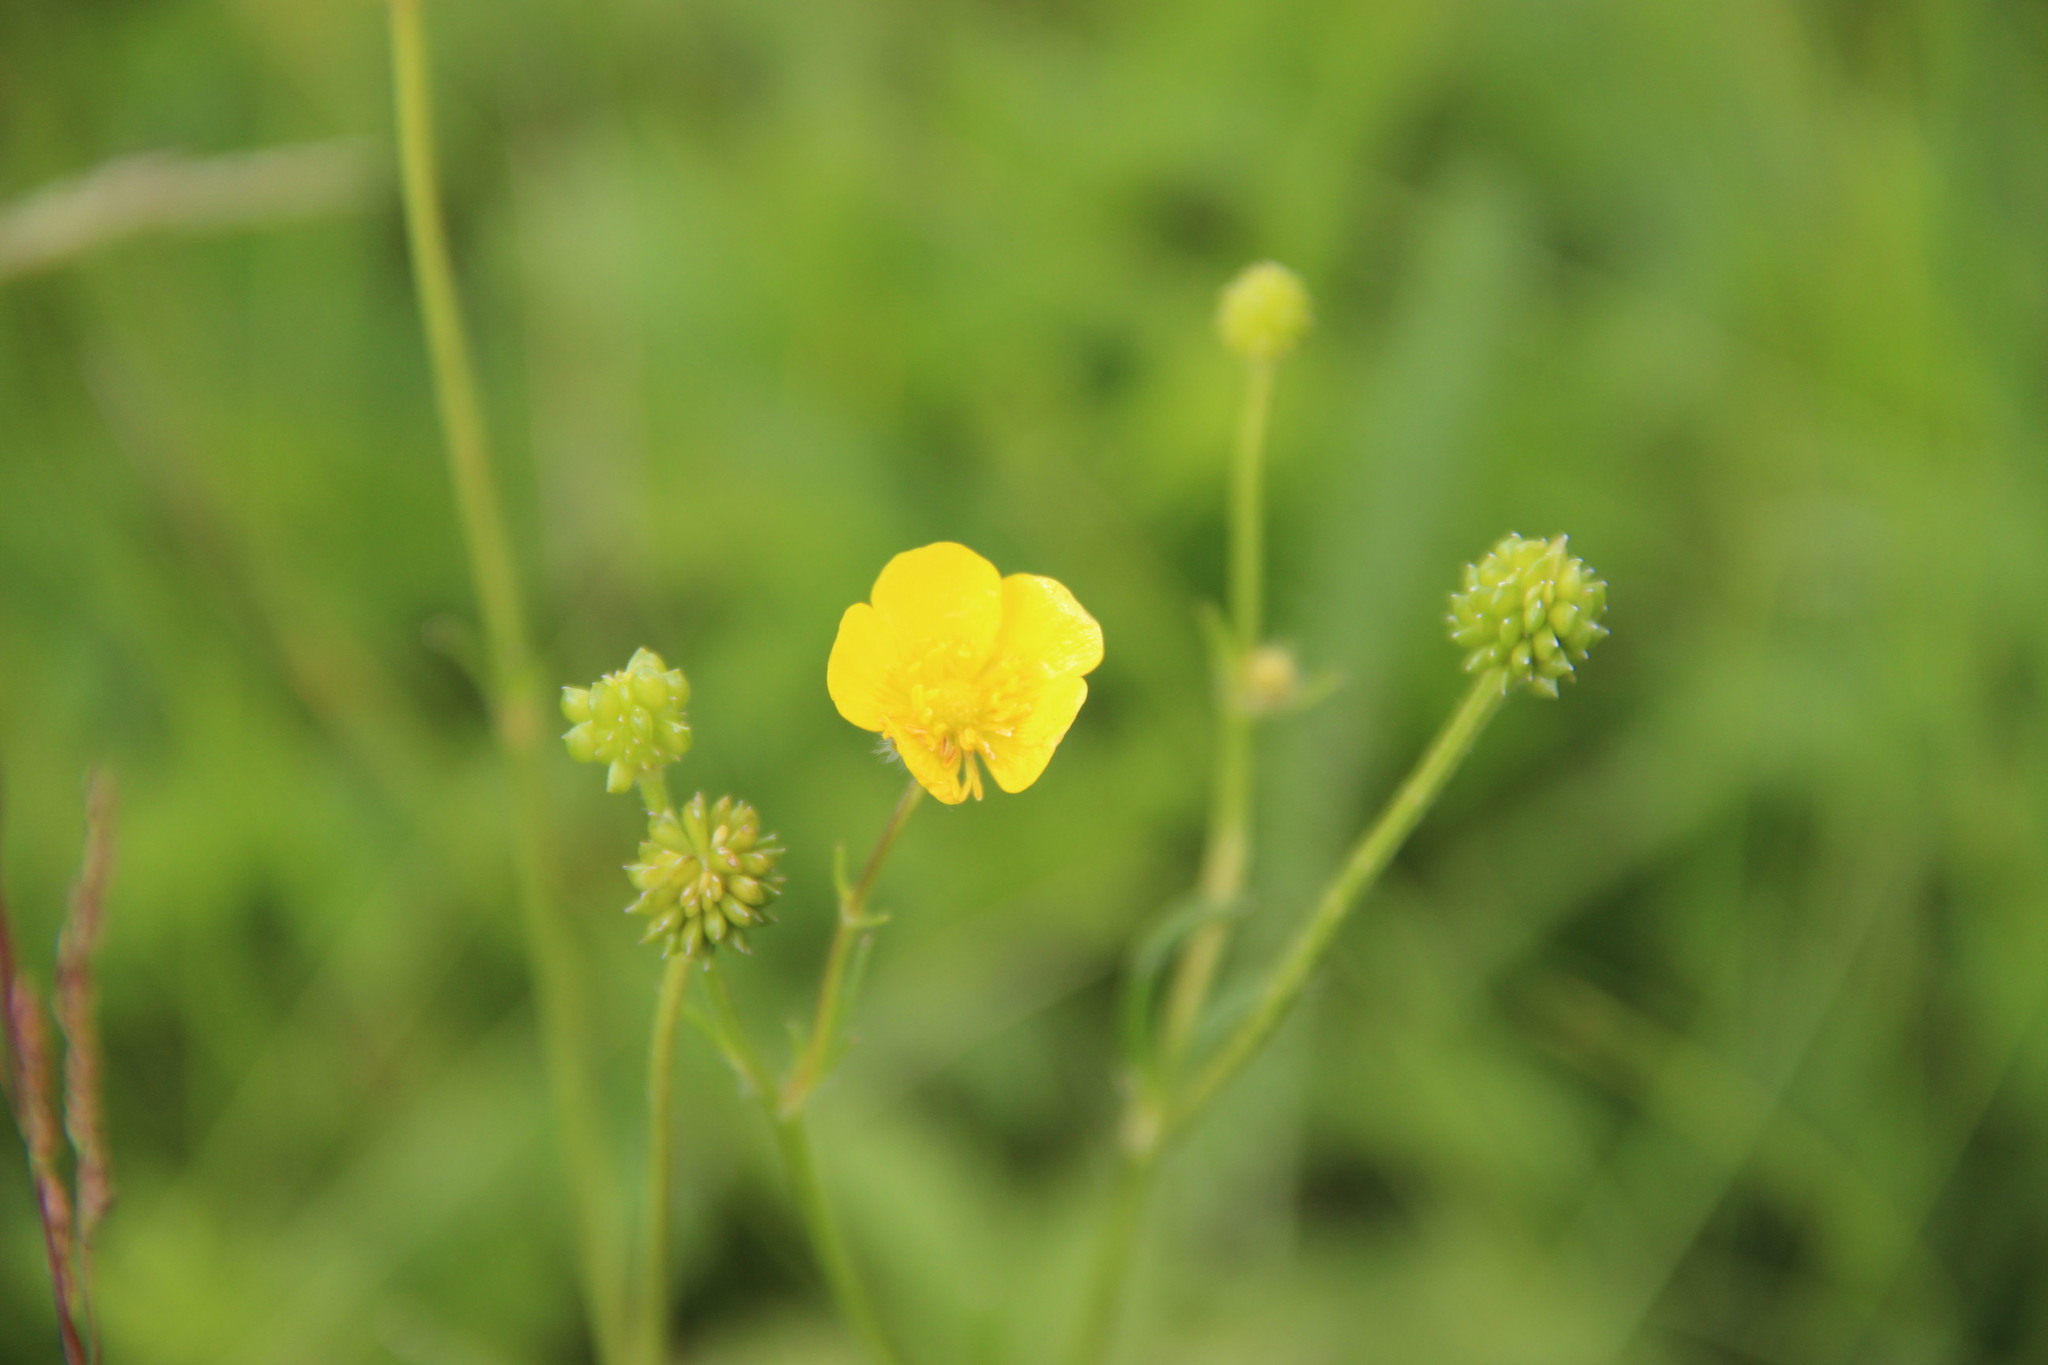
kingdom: Plantae
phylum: Tracheophyta
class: Magnoliopsida
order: Ranunculales
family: Ranunculaceae
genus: Ranunculus
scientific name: Ranunculus polyanthemos
